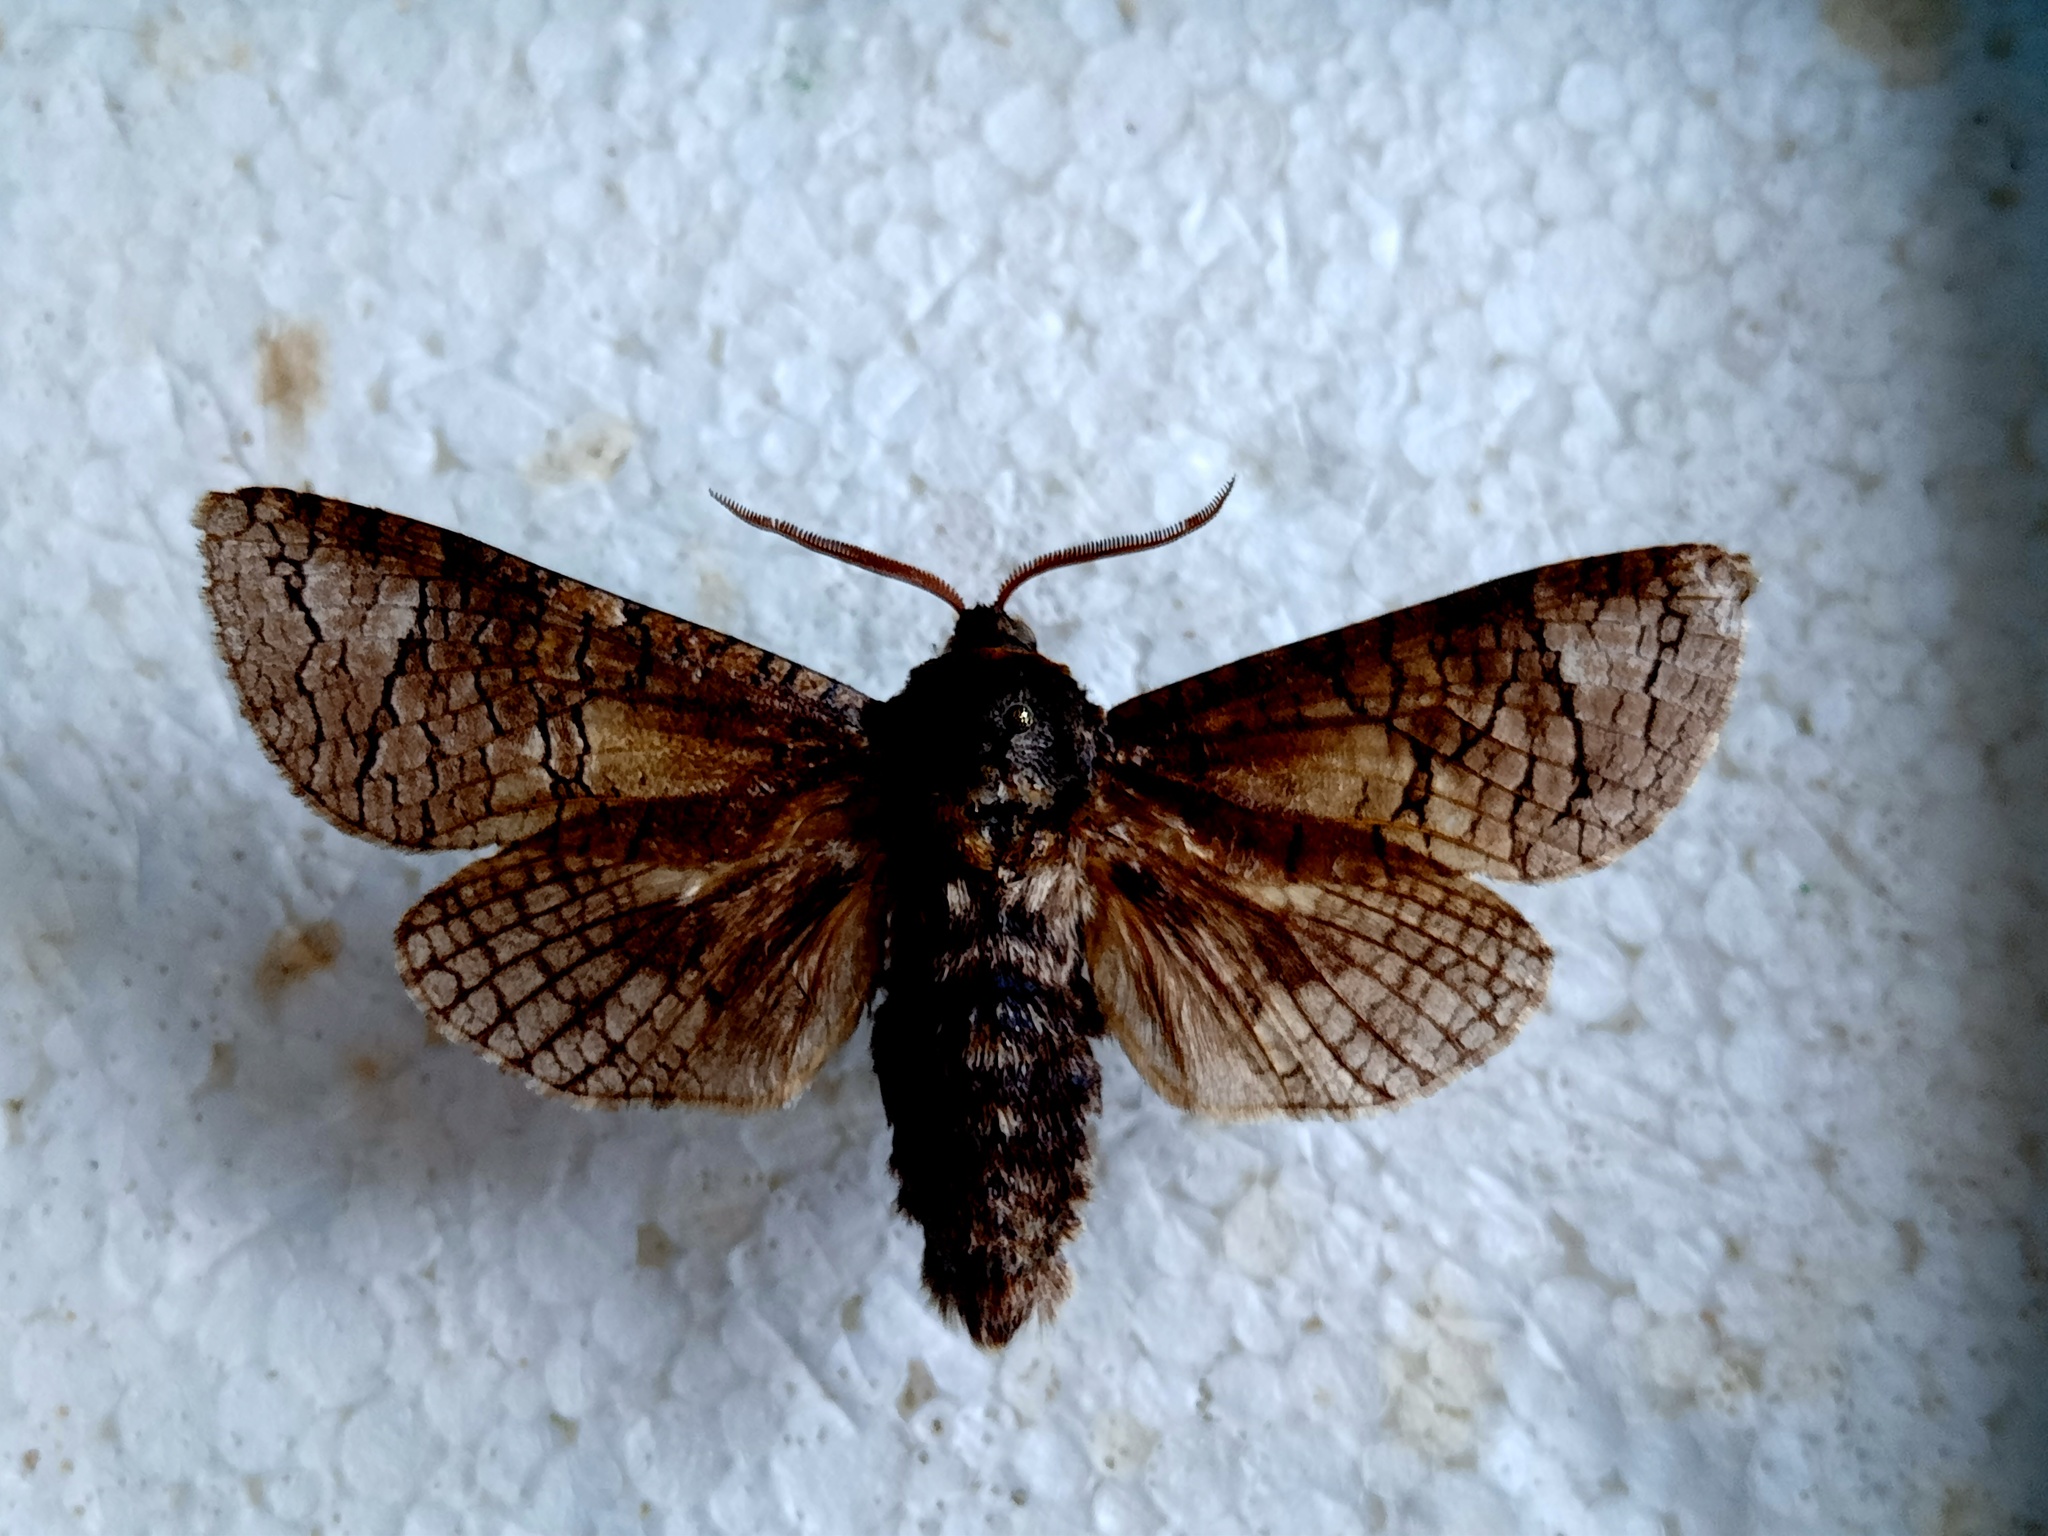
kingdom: Animalia
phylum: Arthropoda
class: Insecta
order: Lepidoptera
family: Cossidae
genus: Cossus
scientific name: Cossus cossus
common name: Goat moth
